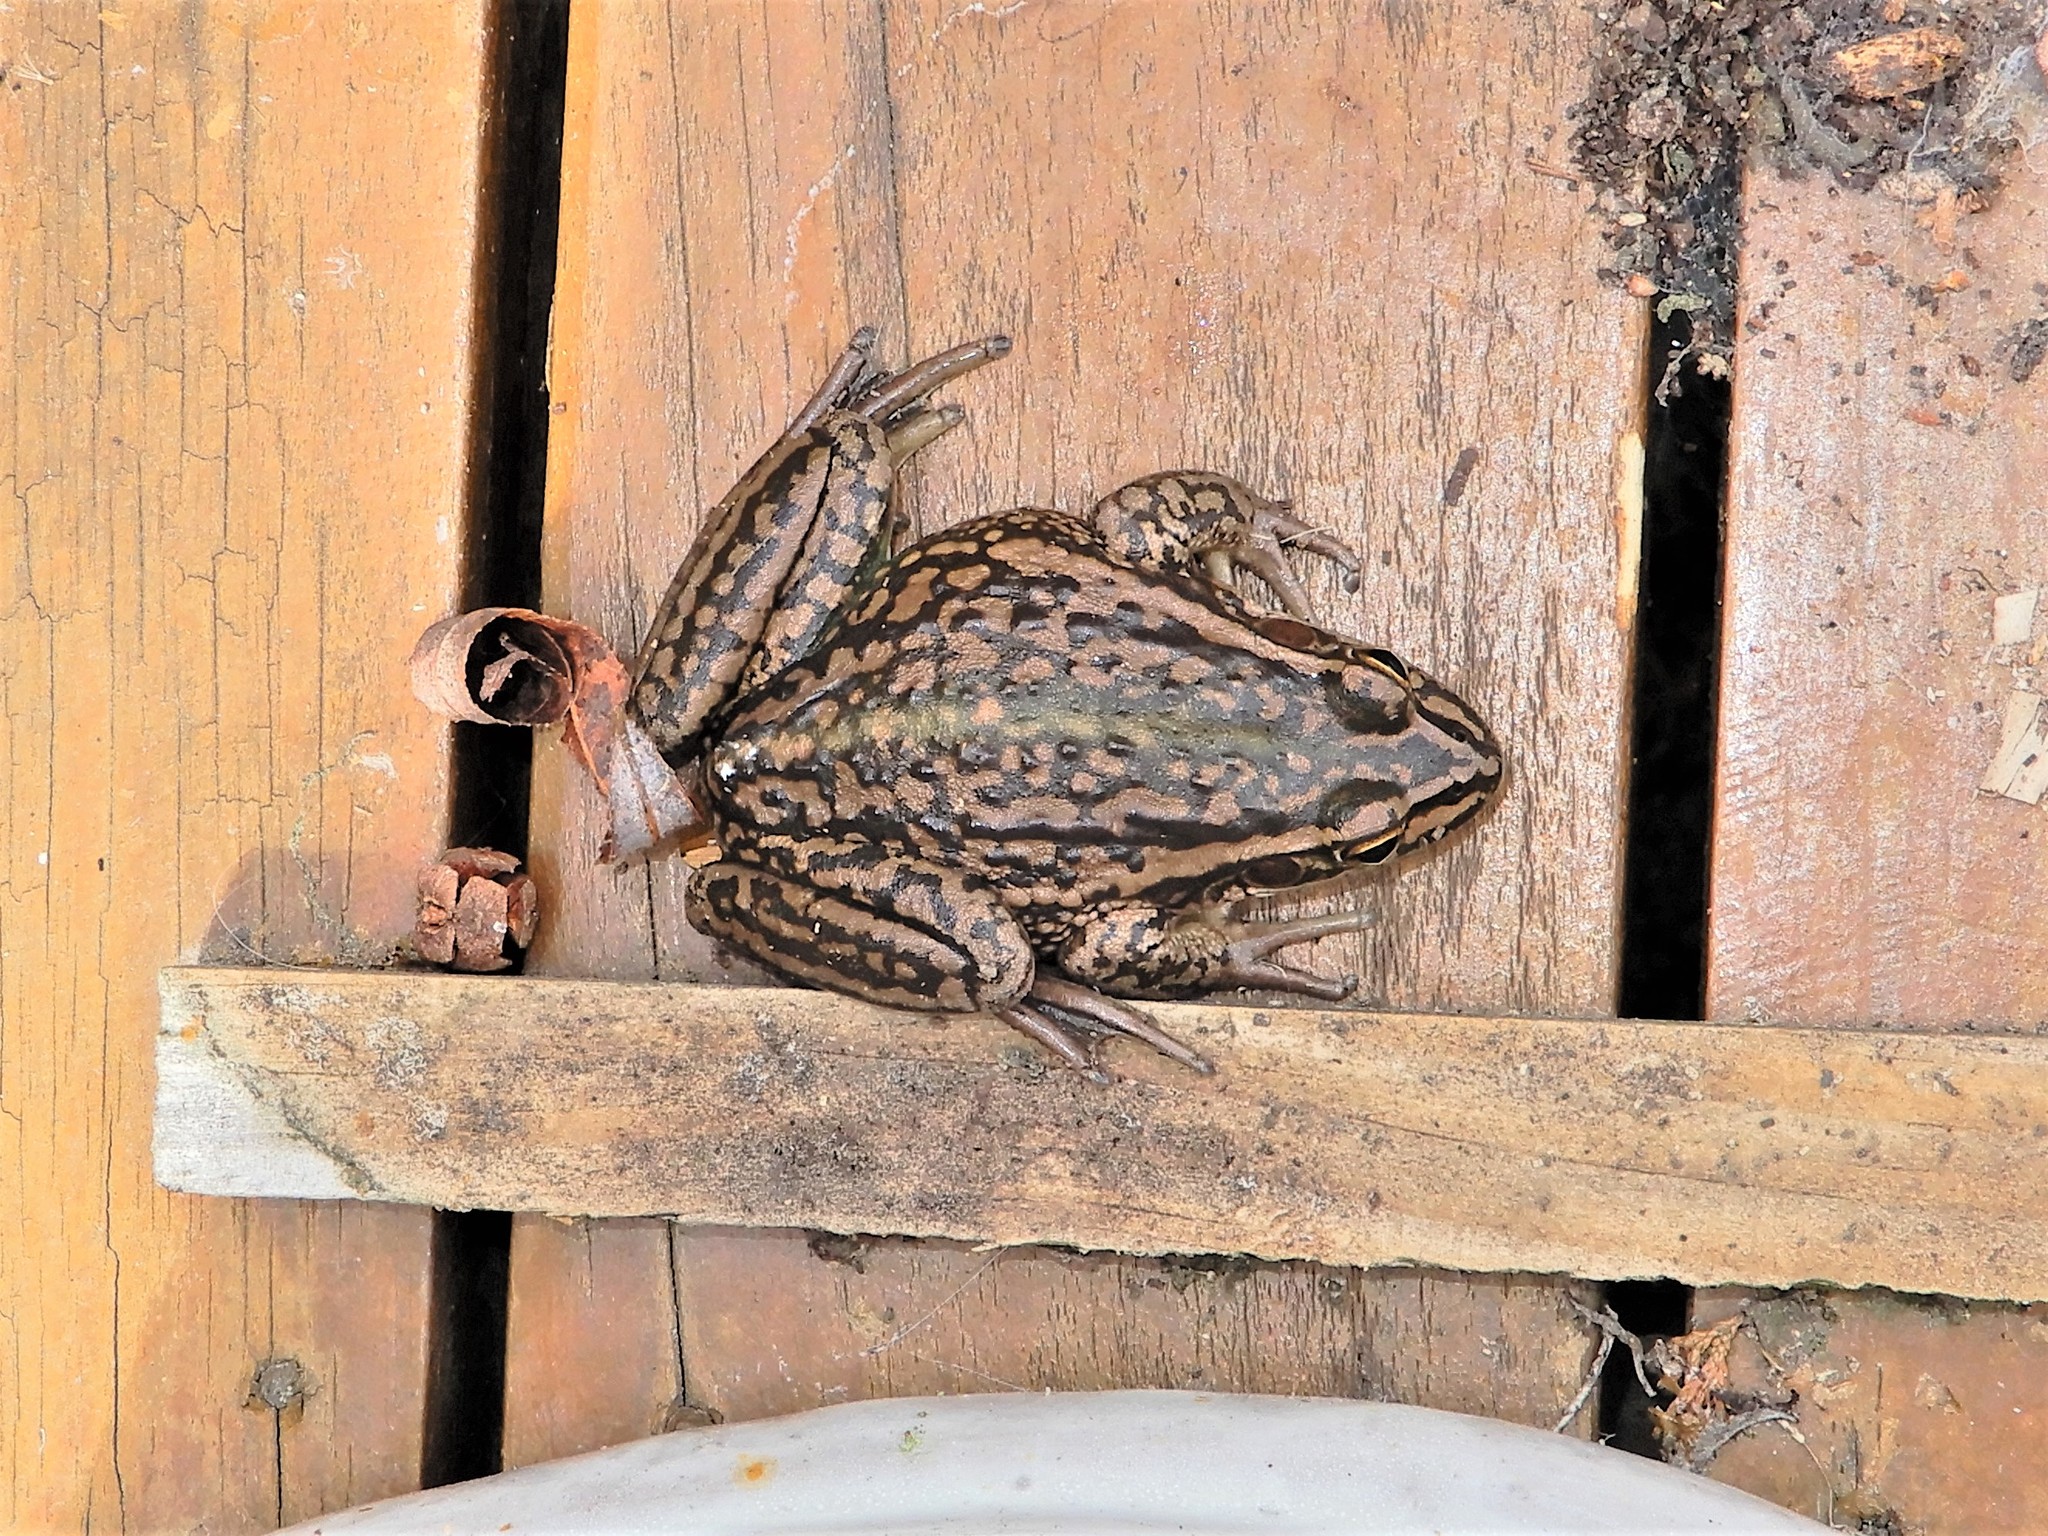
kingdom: Animalia
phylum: Chordata
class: Amphibia
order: Anura
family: Pelodryadidae
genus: Ranoidea
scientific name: Ranoidea raniformis
